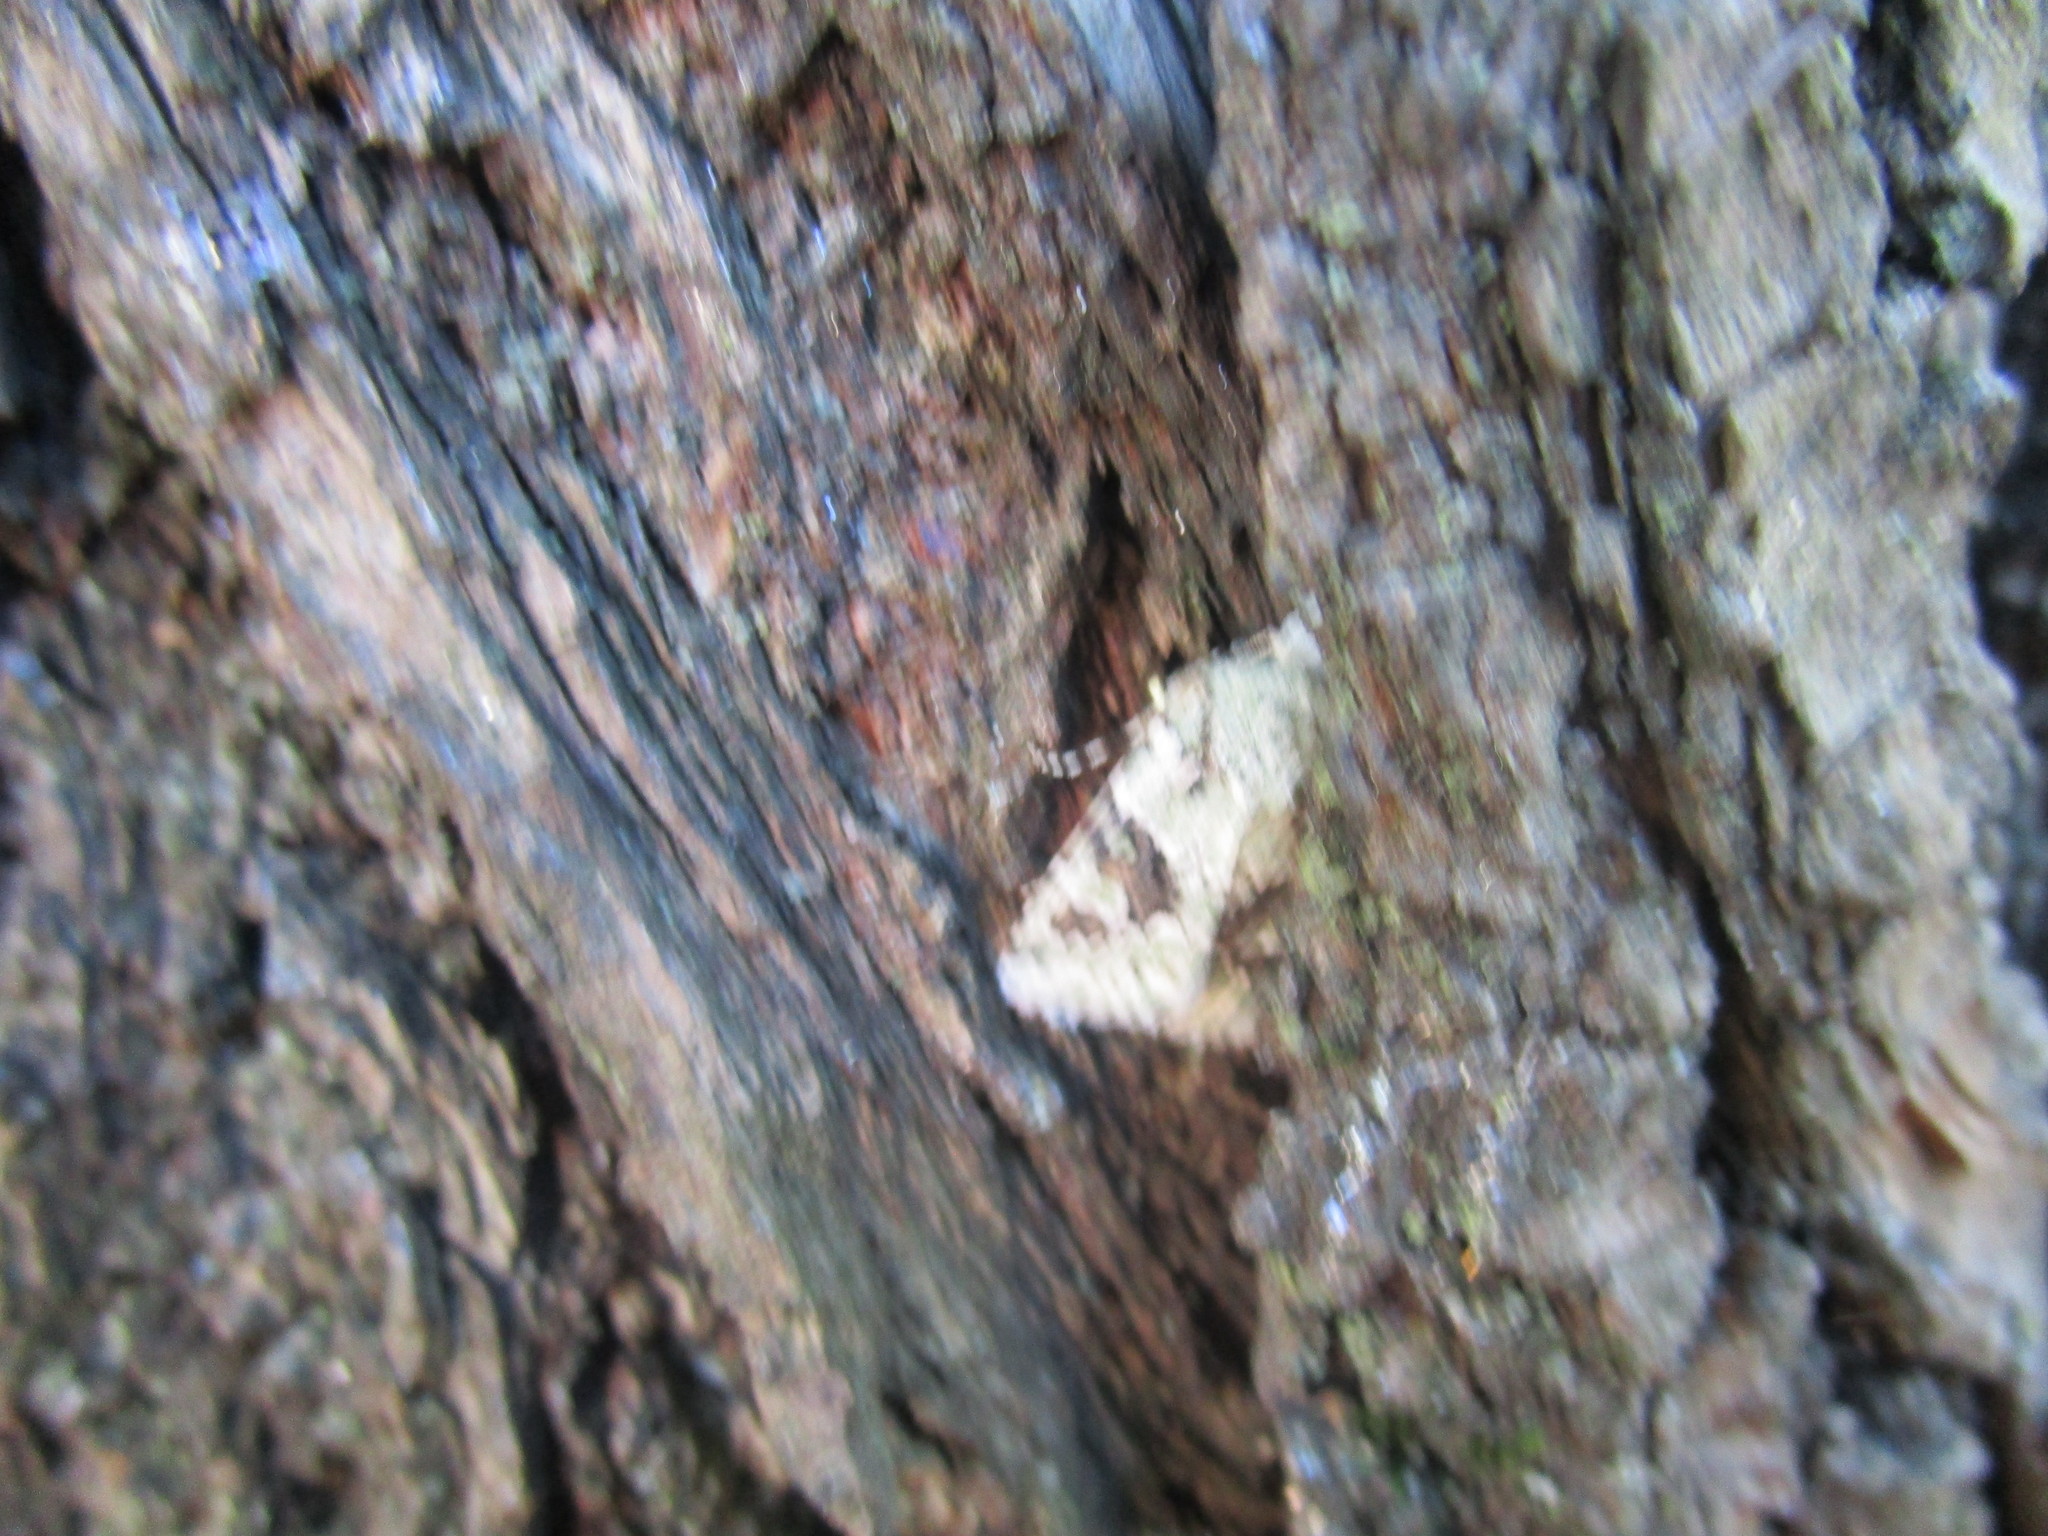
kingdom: Animalia
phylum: Arthropoda
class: Insecta
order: Lepidoptera
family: Noctuidae
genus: Lacinipolia
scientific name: Lacinipolia implicata
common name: Implicit arches
